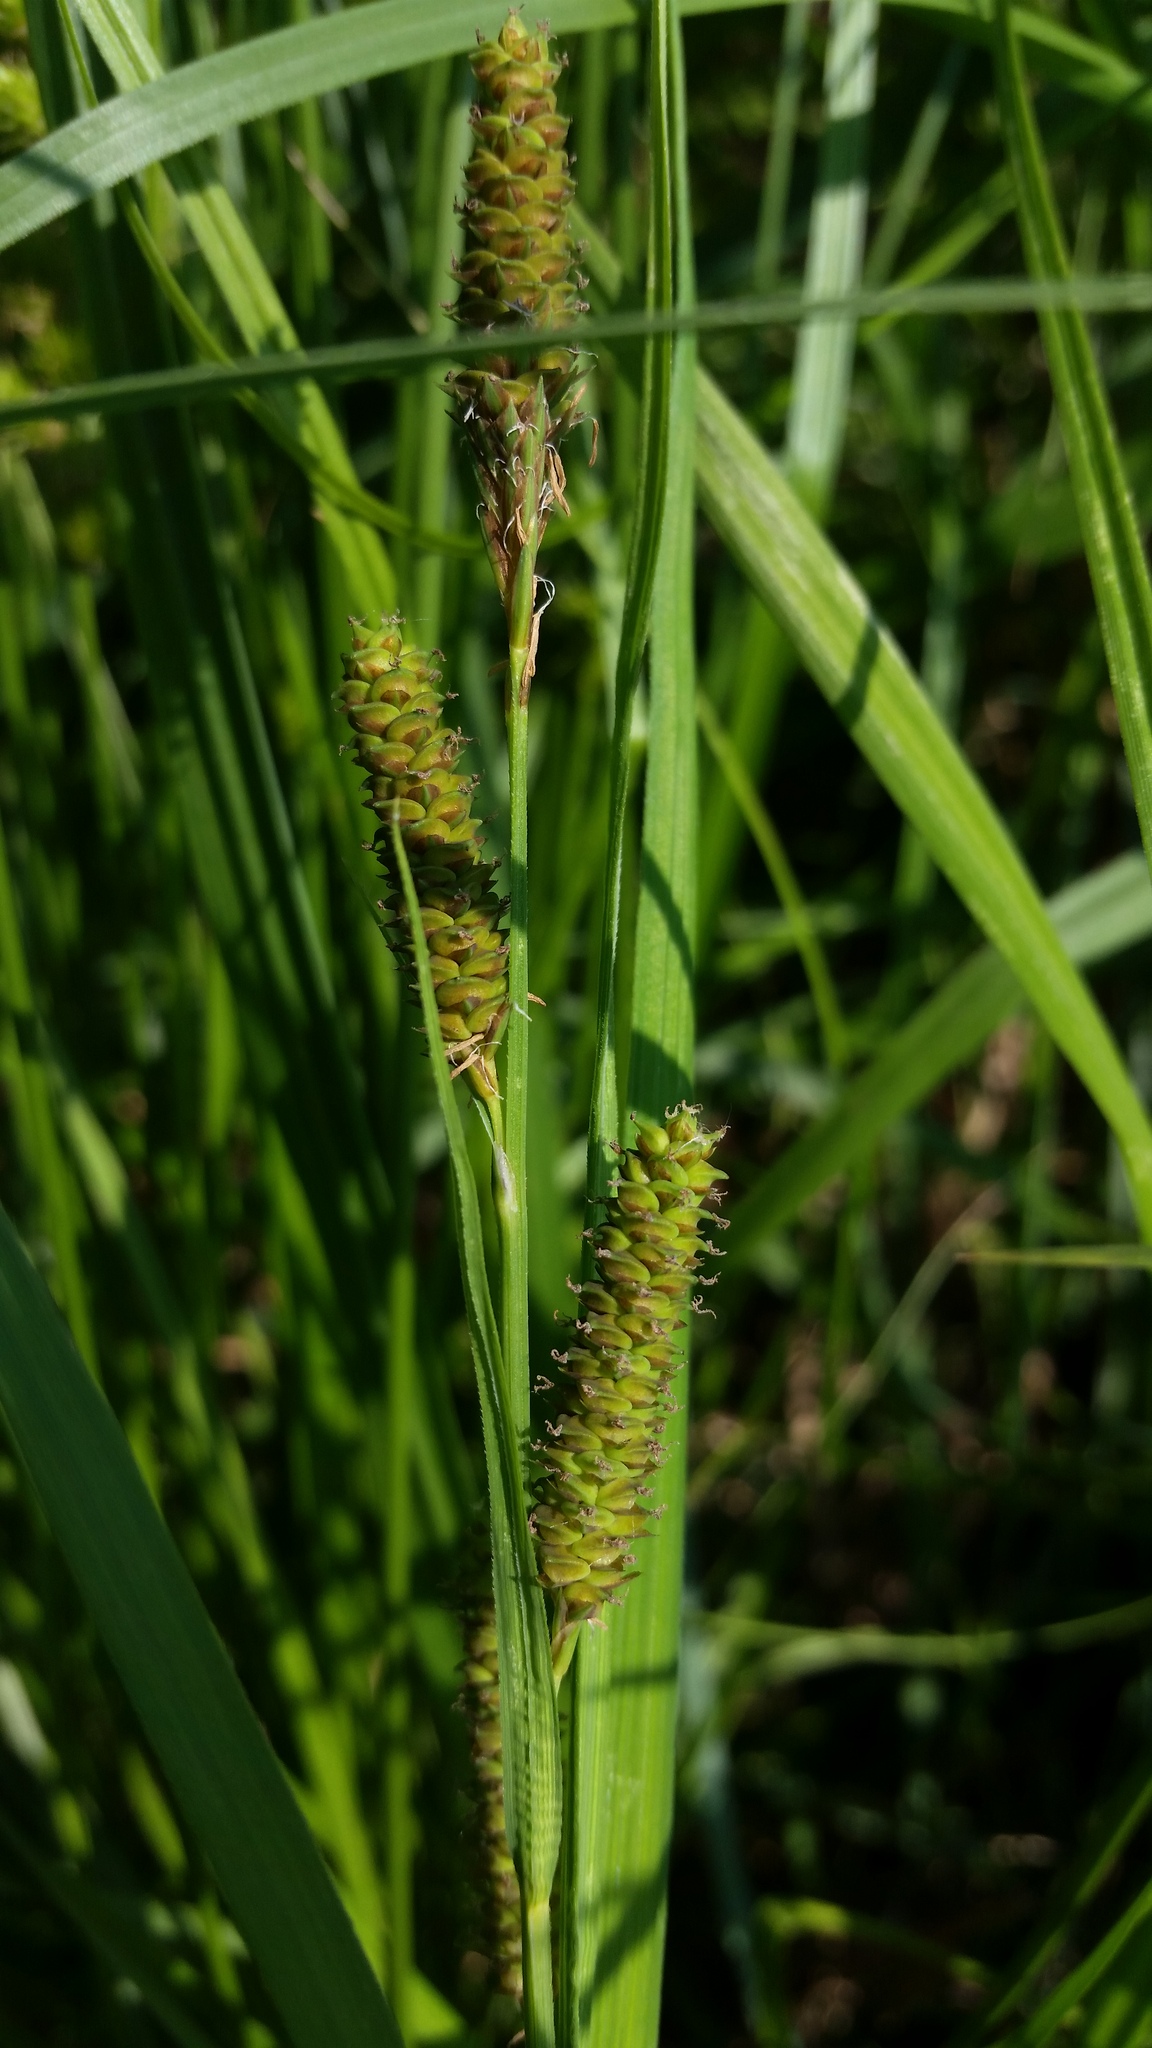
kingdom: Plantae
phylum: Tracheophyta
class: Liliopsida
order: Poales
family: Cyperaceae
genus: Carex
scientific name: Carex shortiana
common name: Short's sedge
